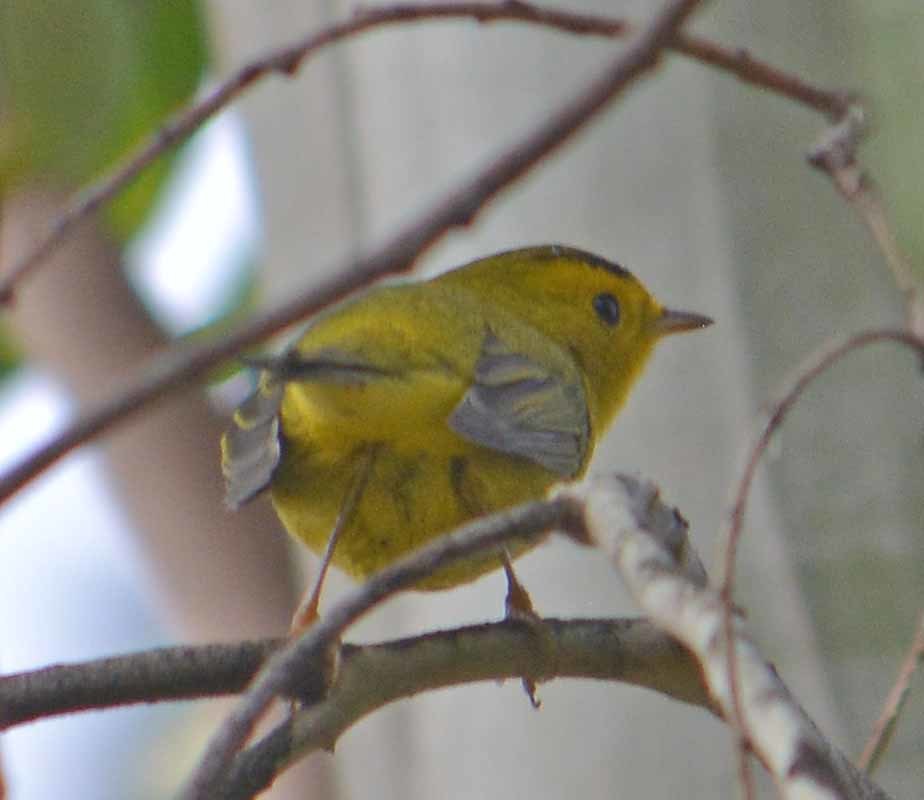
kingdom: Animalia
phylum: Chordata
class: Aves
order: Passeriformes
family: Parulidae
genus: Cardellina
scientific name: Cardellina pusilla
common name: Wilson's warbler
